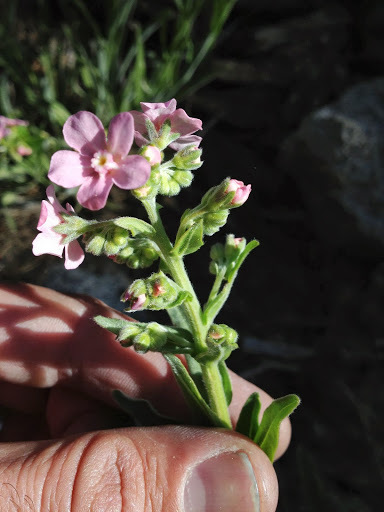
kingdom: Plantae
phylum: Tracheophyta
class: Magnoliopsida
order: Boraginales
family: Boraginaceae
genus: Hackelia
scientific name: Hackelia mundula
